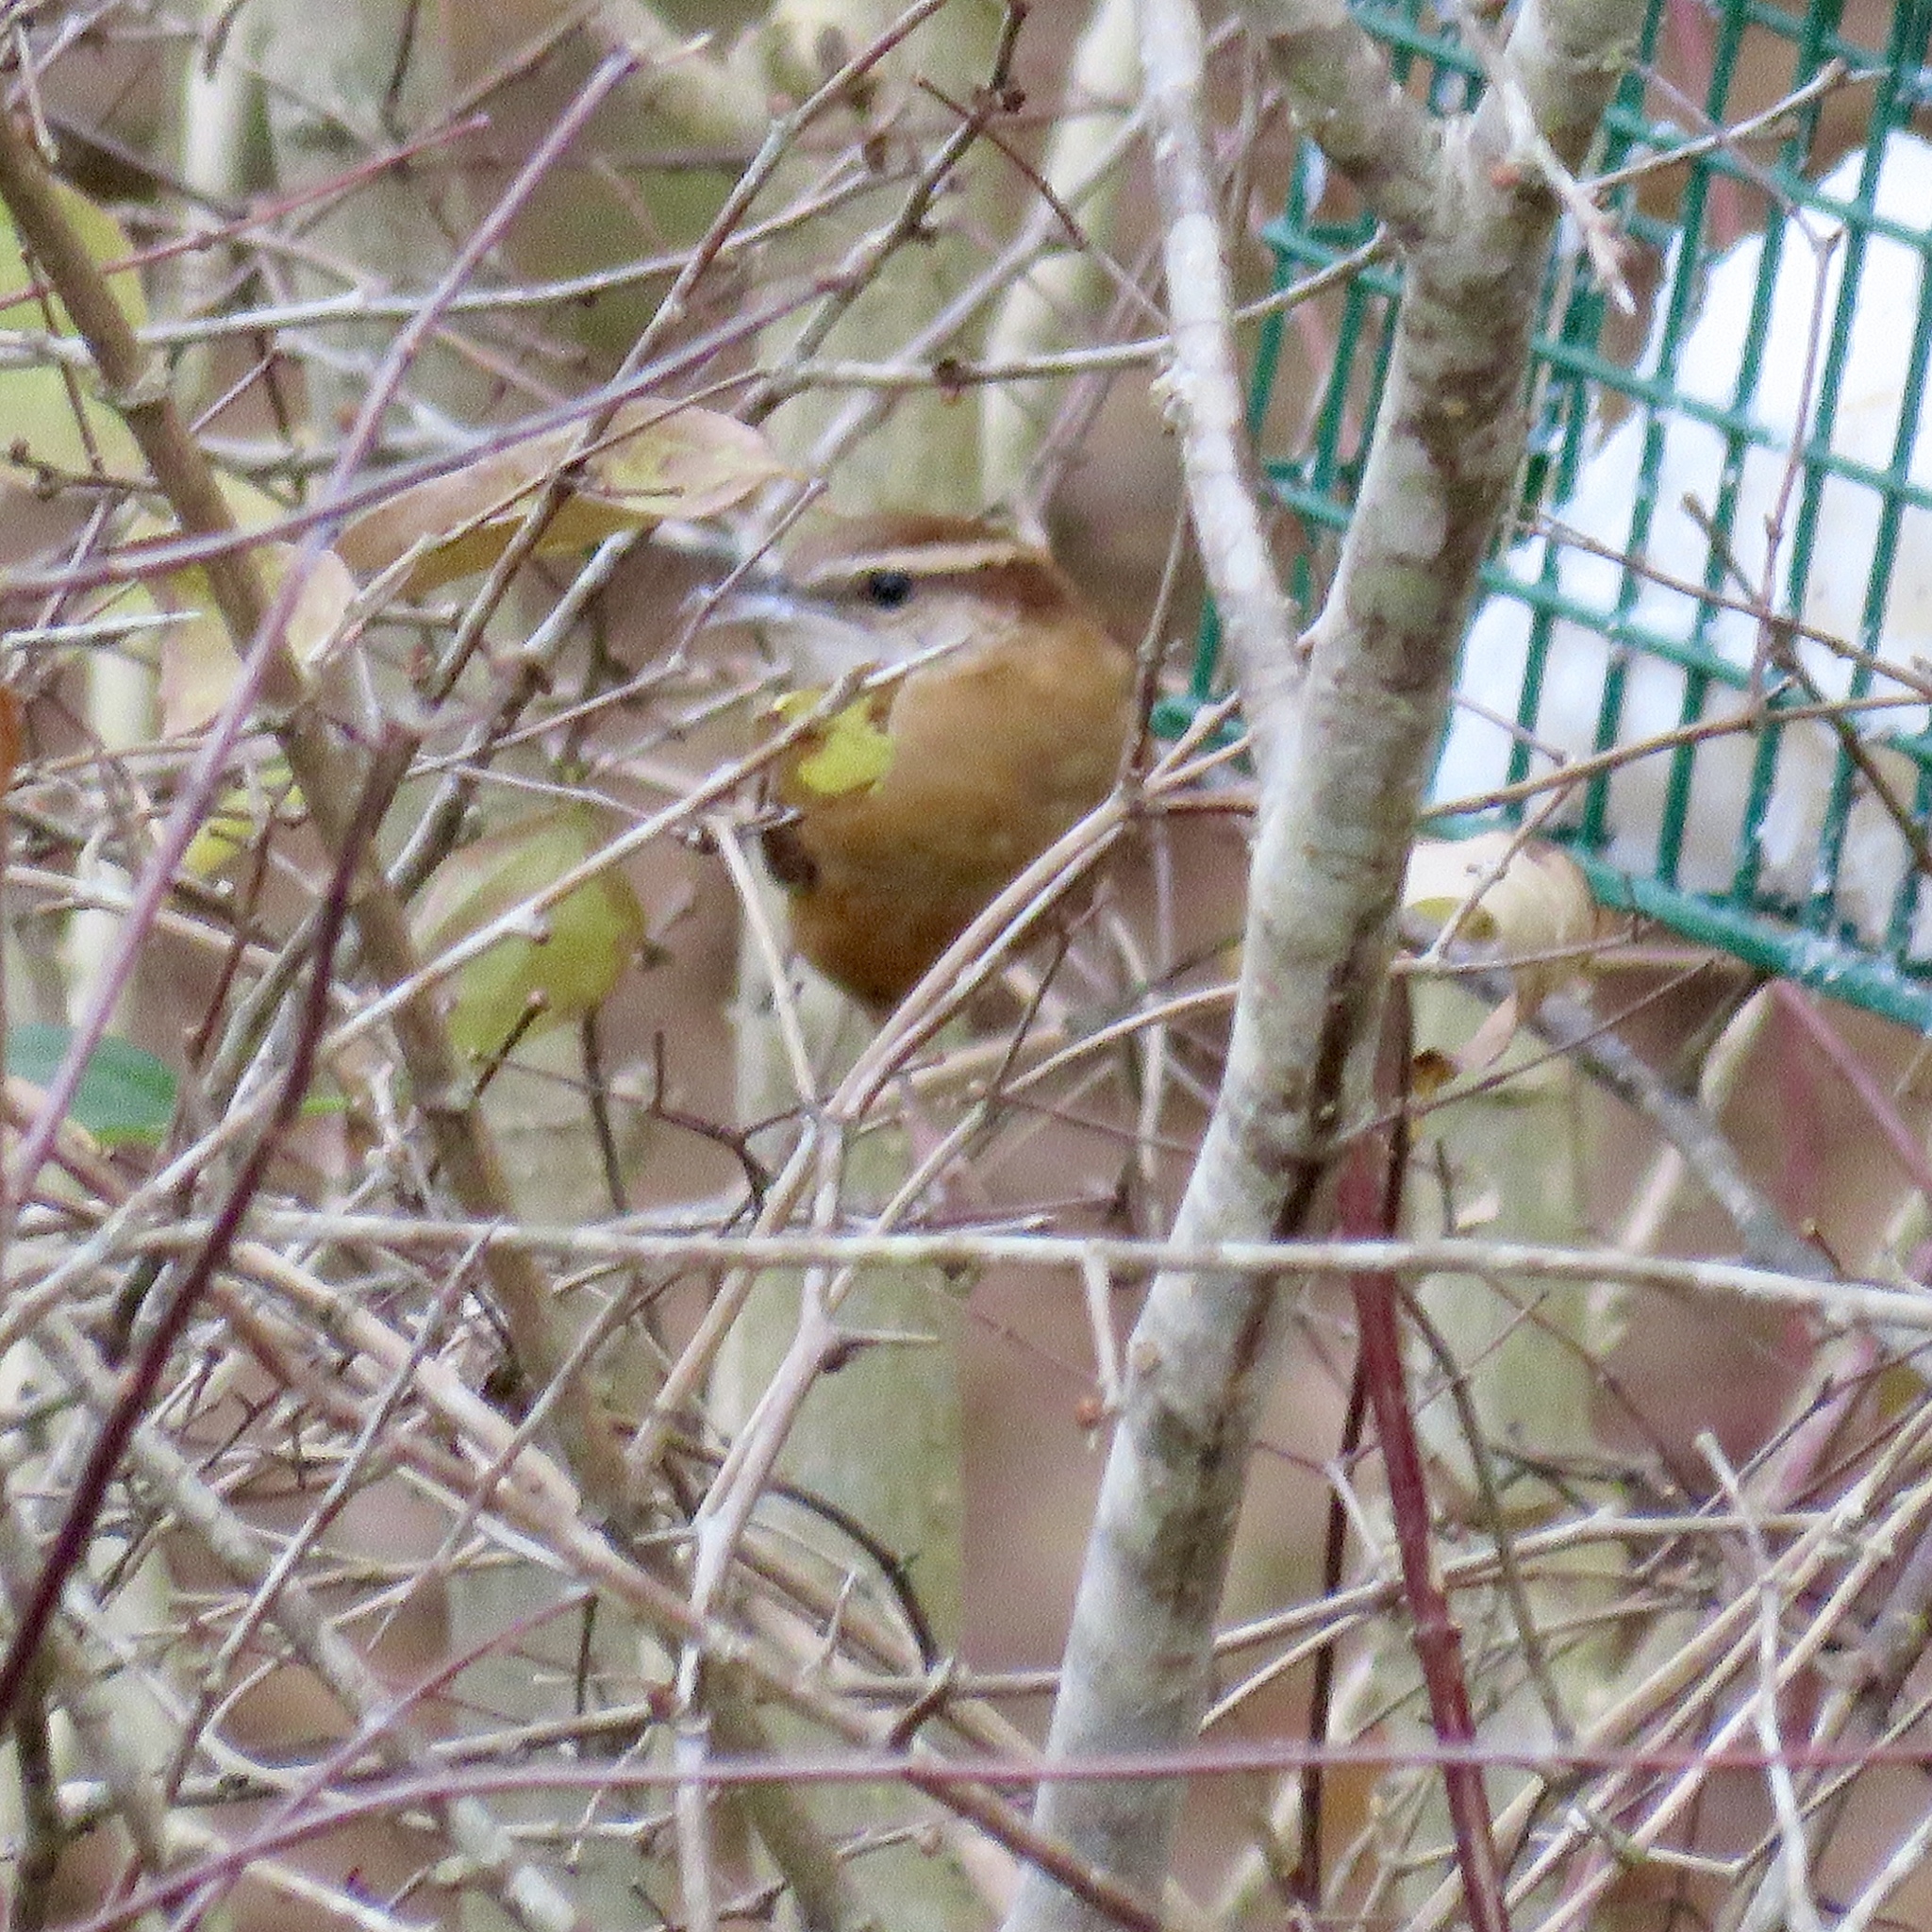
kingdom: Animalia
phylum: Chordata
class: Aves
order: Passeriformes
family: Troglodytidae
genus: Thryothorus
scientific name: Thryothorus ludovicianus
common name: Carolina wren
